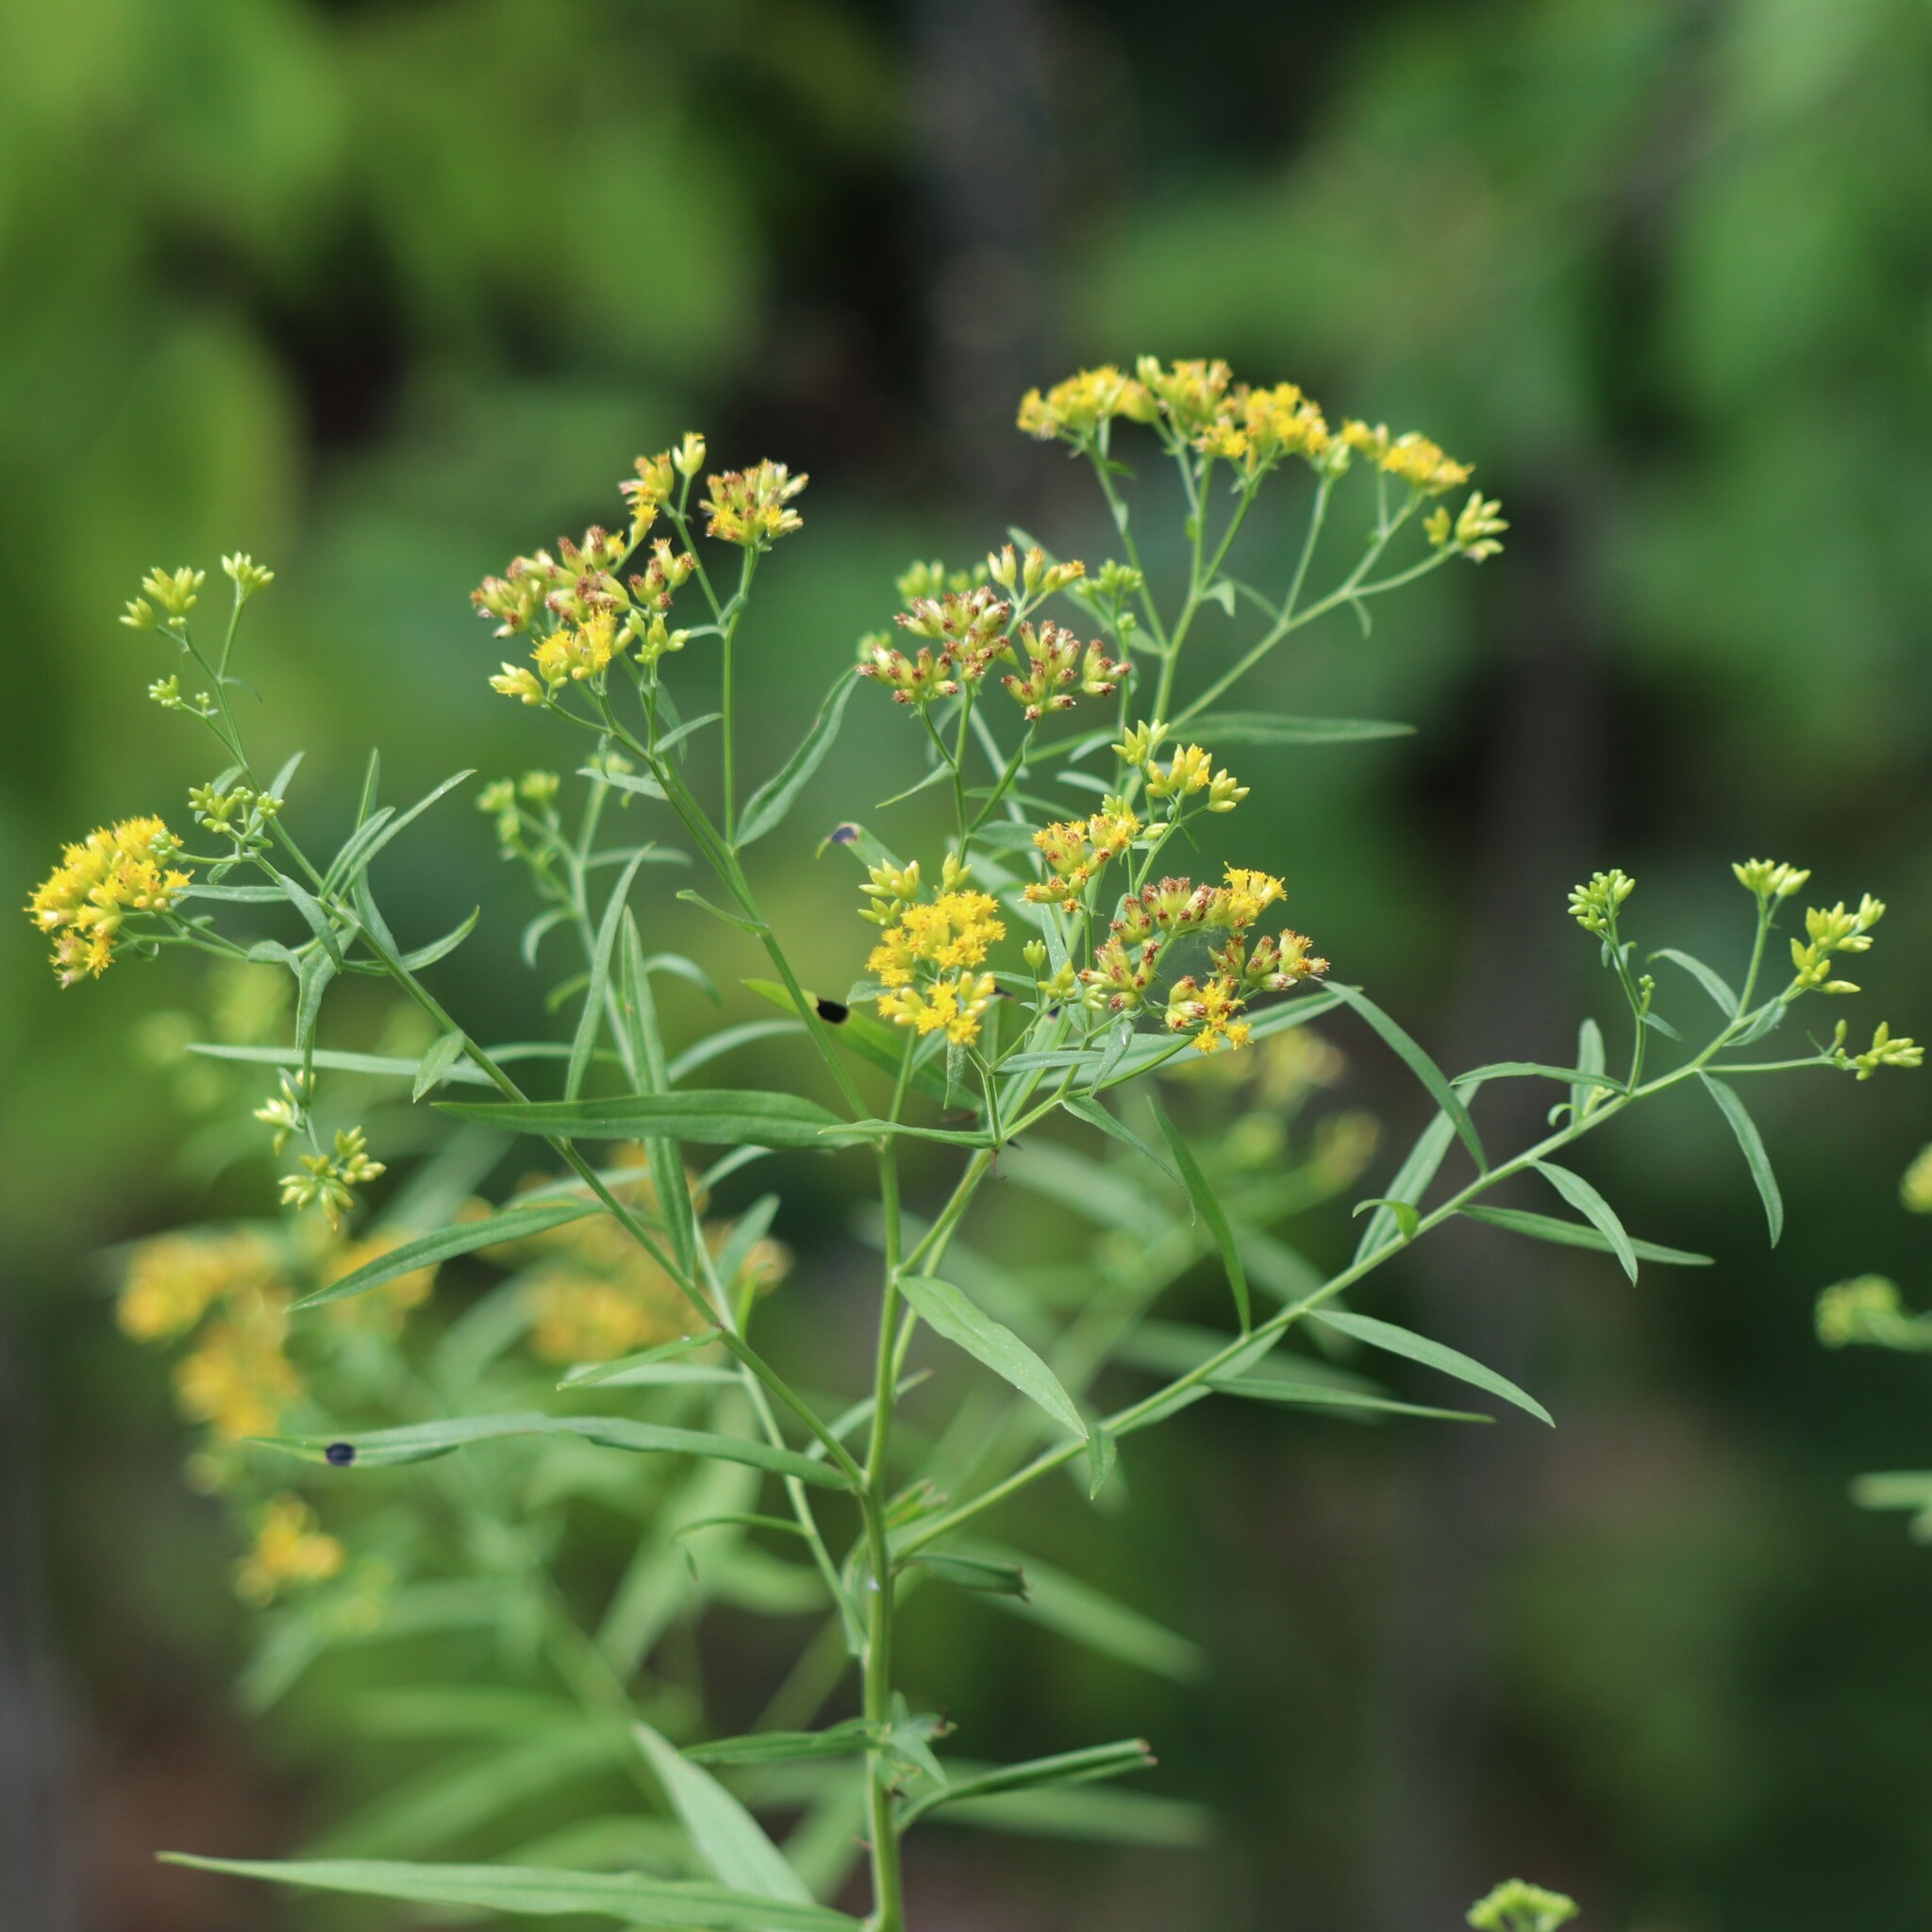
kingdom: Plantae
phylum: Tracheophyta
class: Magnoliopsida
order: Asterales
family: Asteraceae
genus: Euthamia
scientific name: Euthamia graminifolia
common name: Common goldentop
